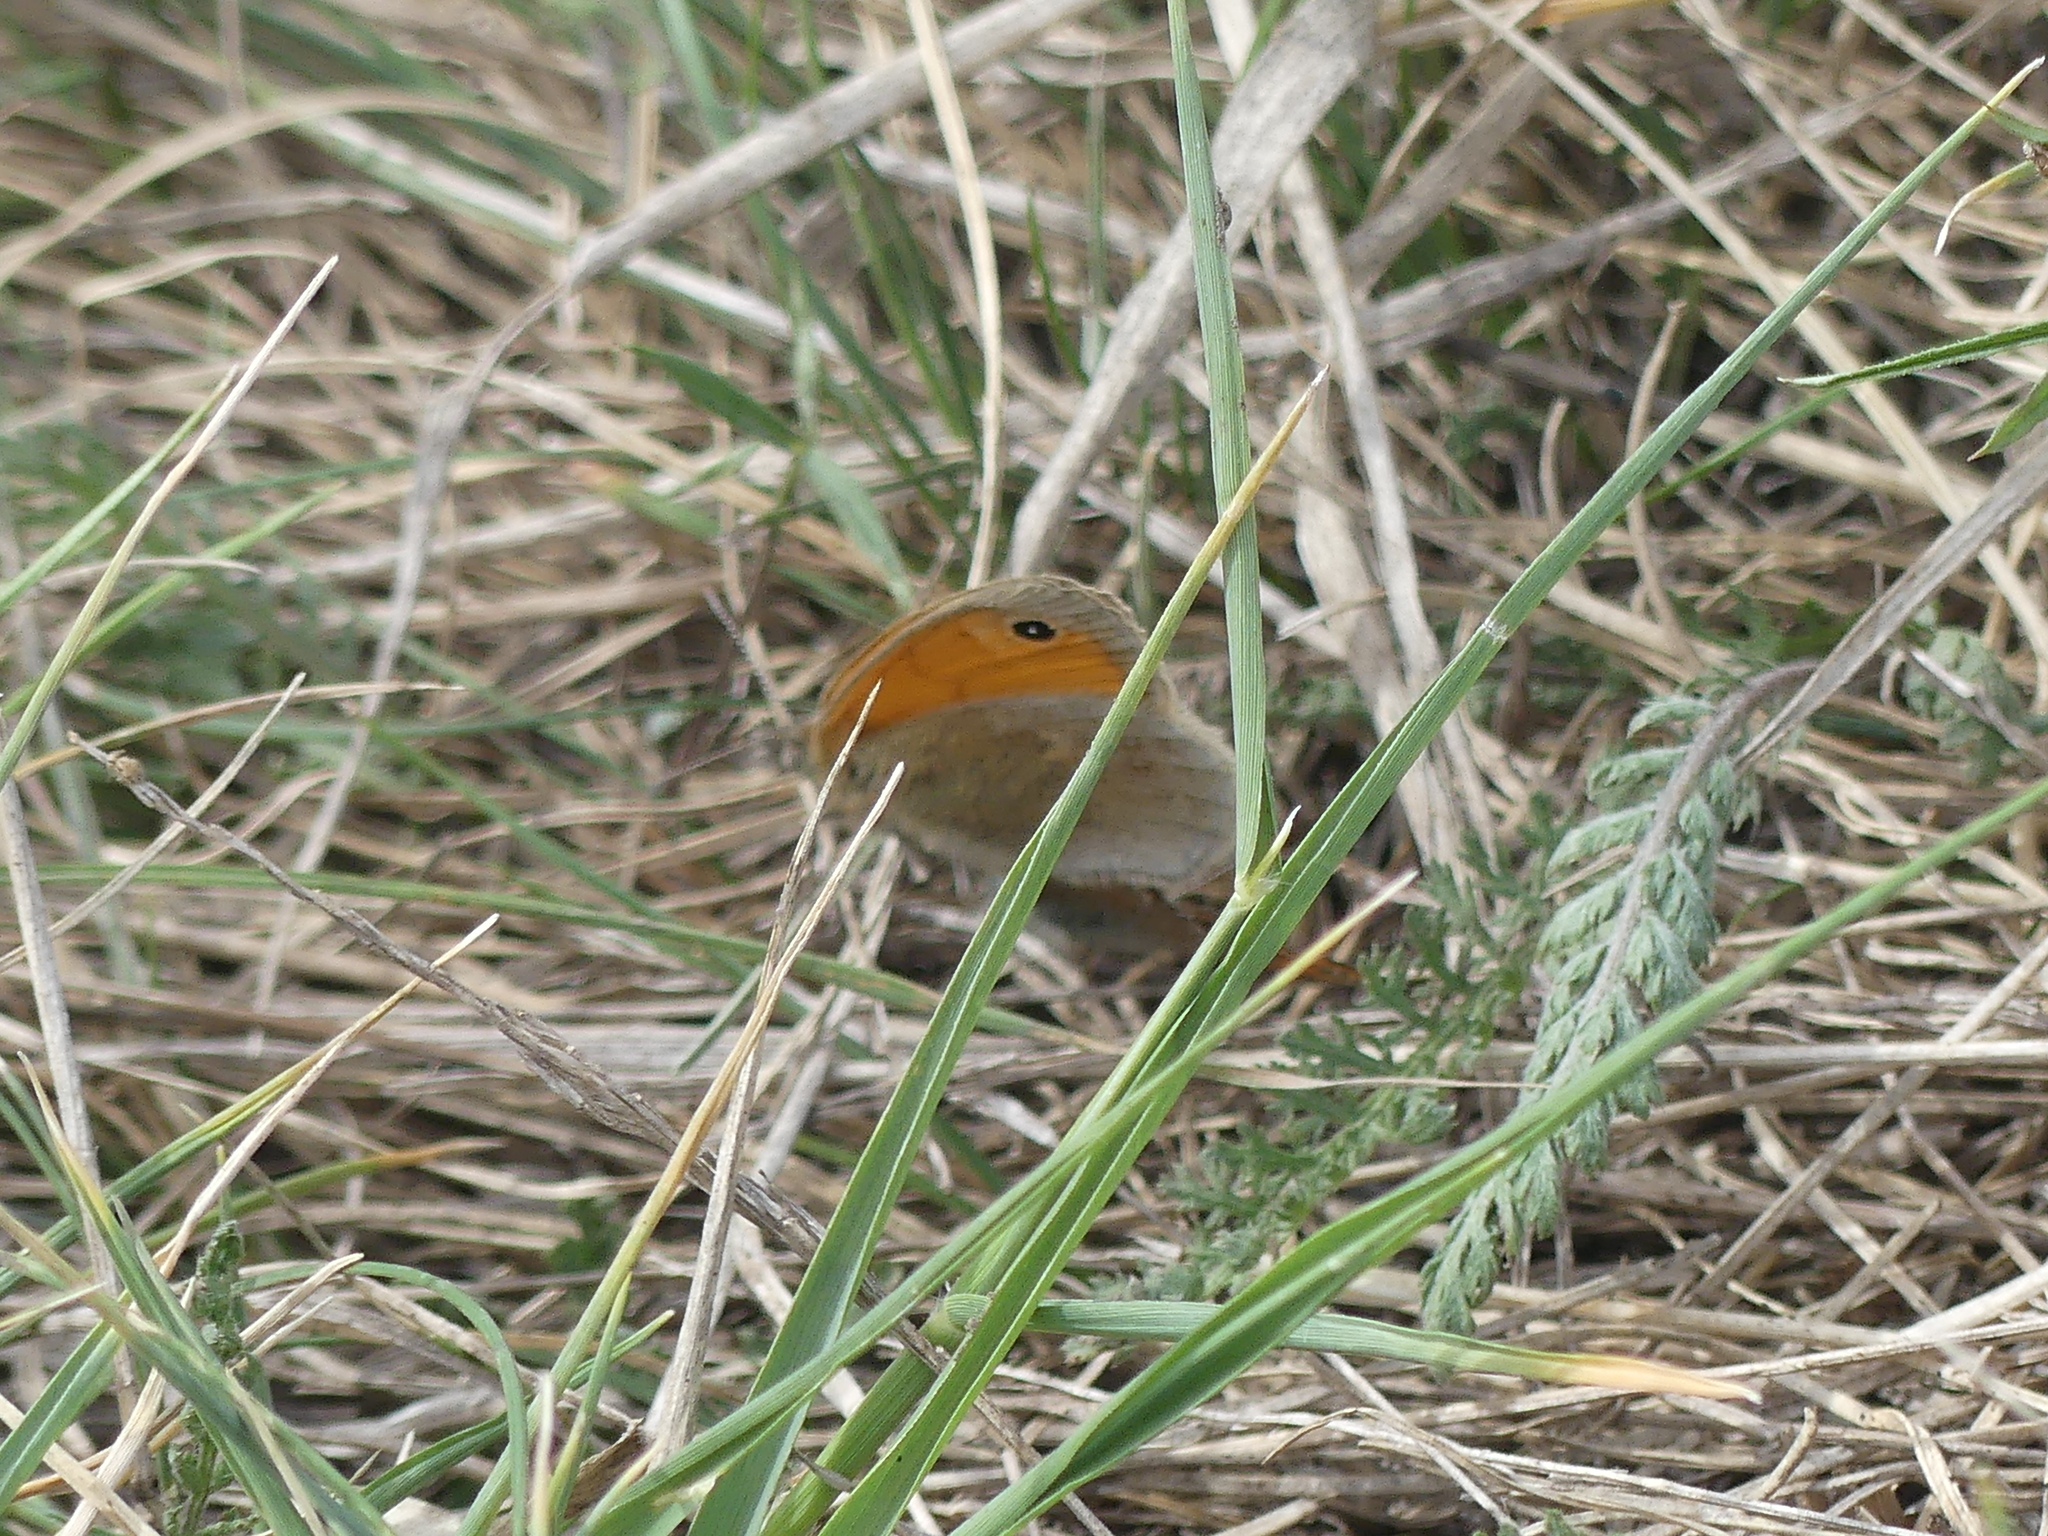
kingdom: Animalia
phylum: Arthropoda
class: Insecta
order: Lepidoptera
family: Nymphalidae
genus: Coenonympha
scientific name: Coenonympha pamphilus
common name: Small heath
